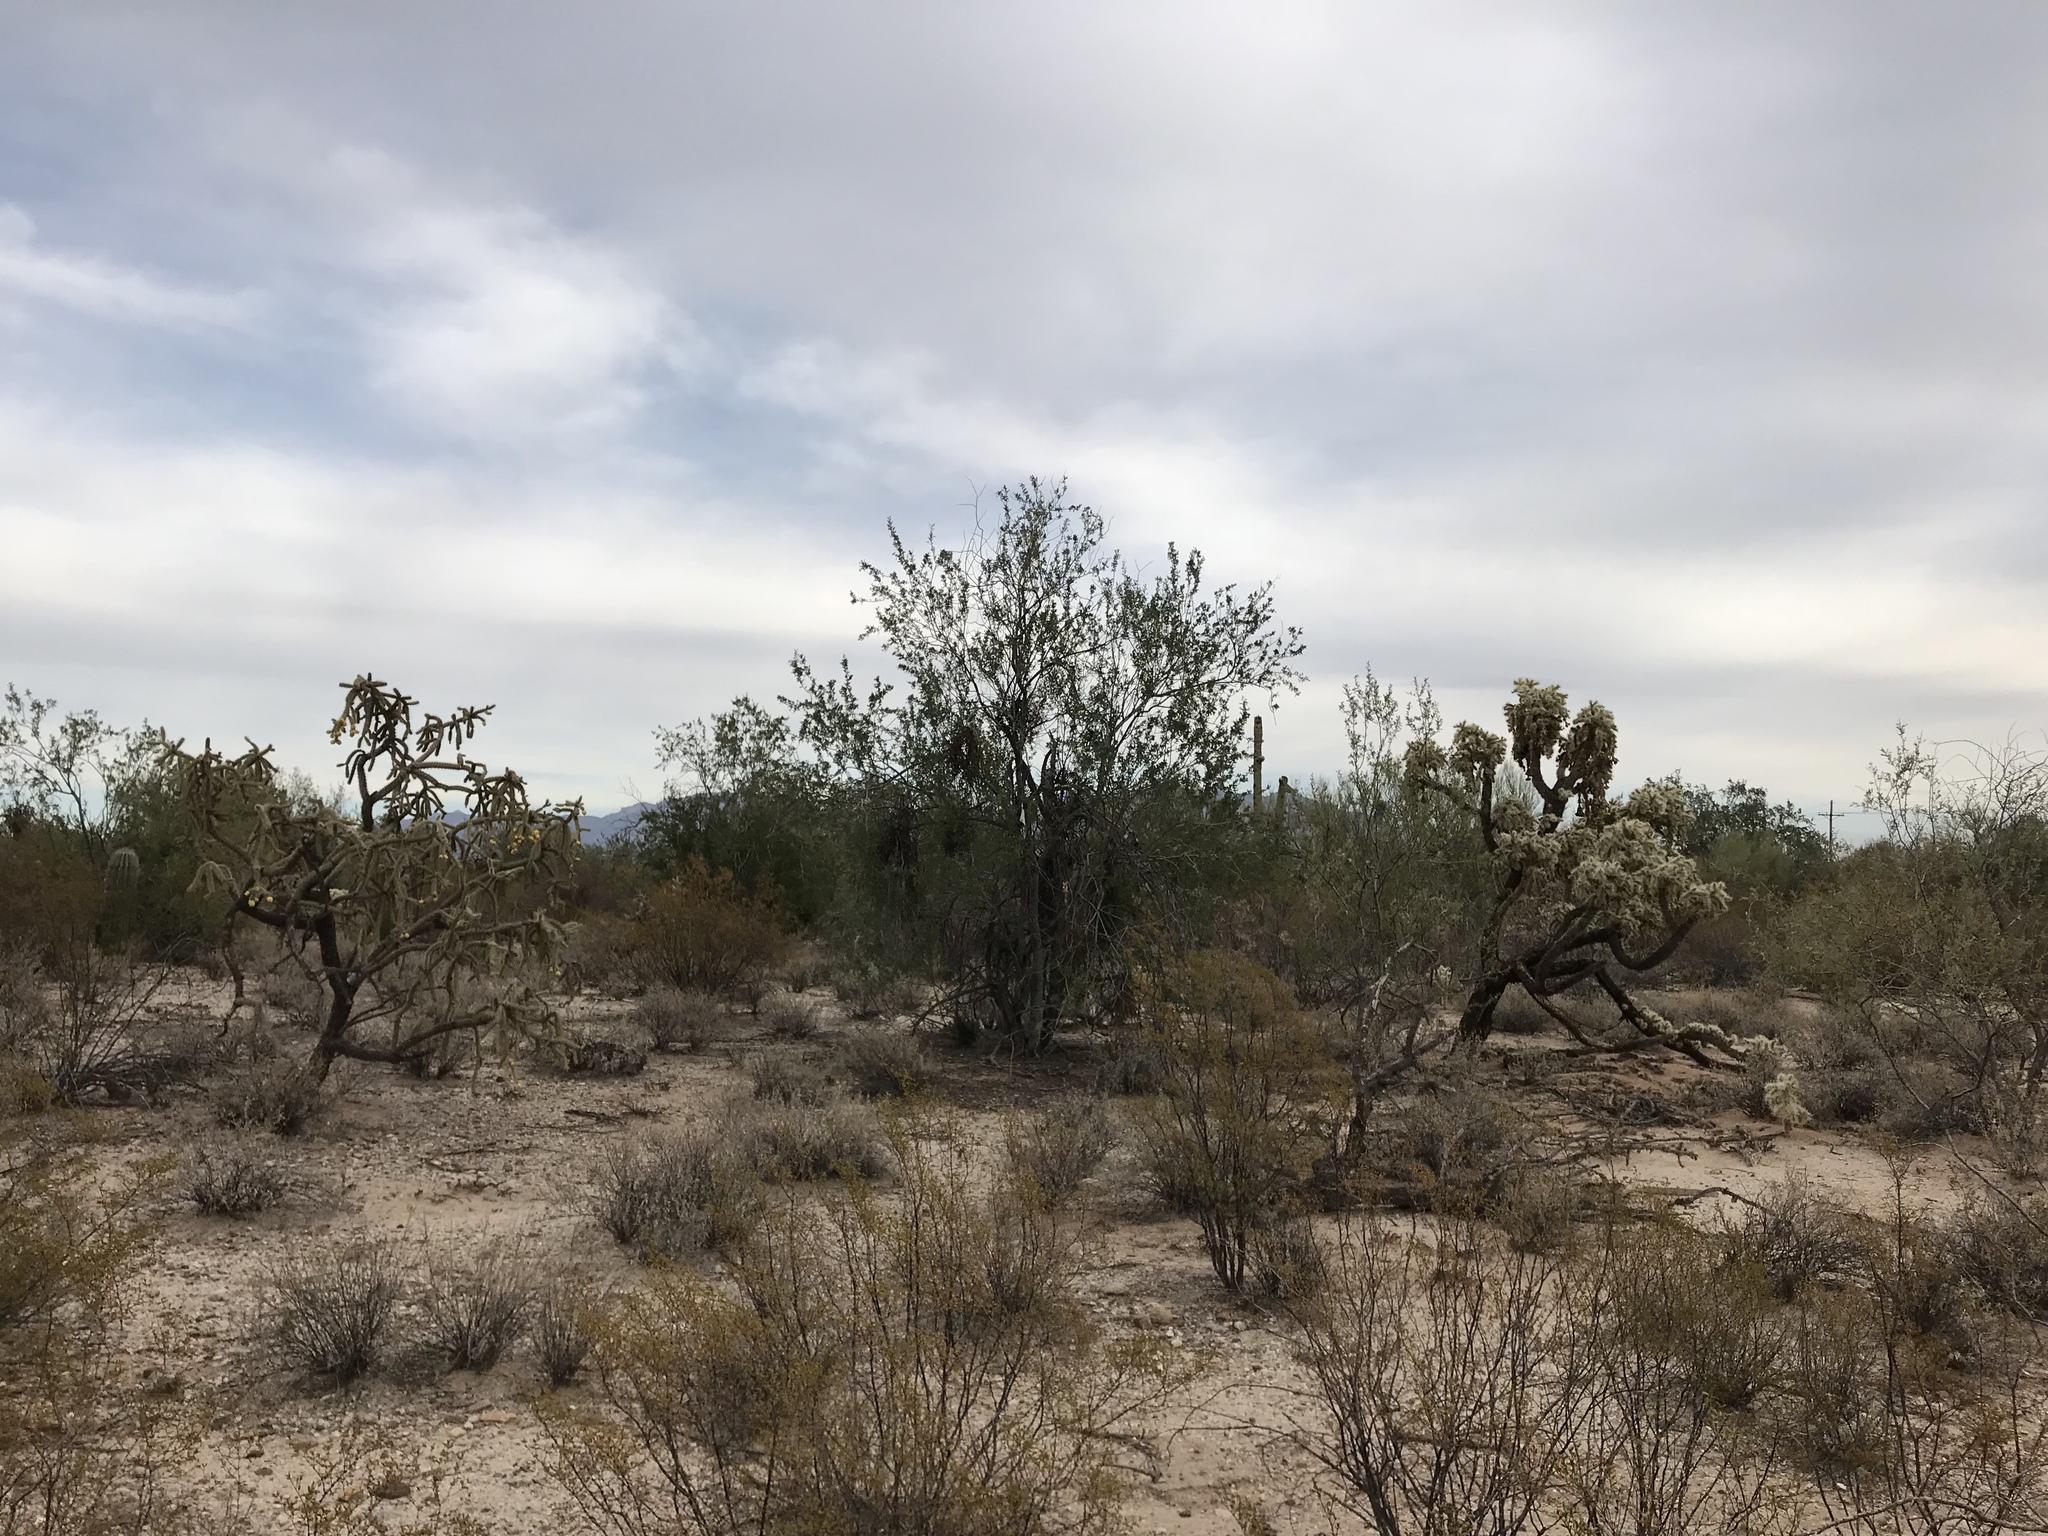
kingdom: Plantae
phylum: Tracheophyta
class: Magnoliopsida
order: Fabales
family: Fabaceae
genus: Olneya
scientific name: Olneya tesota
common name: Desert ironwood
